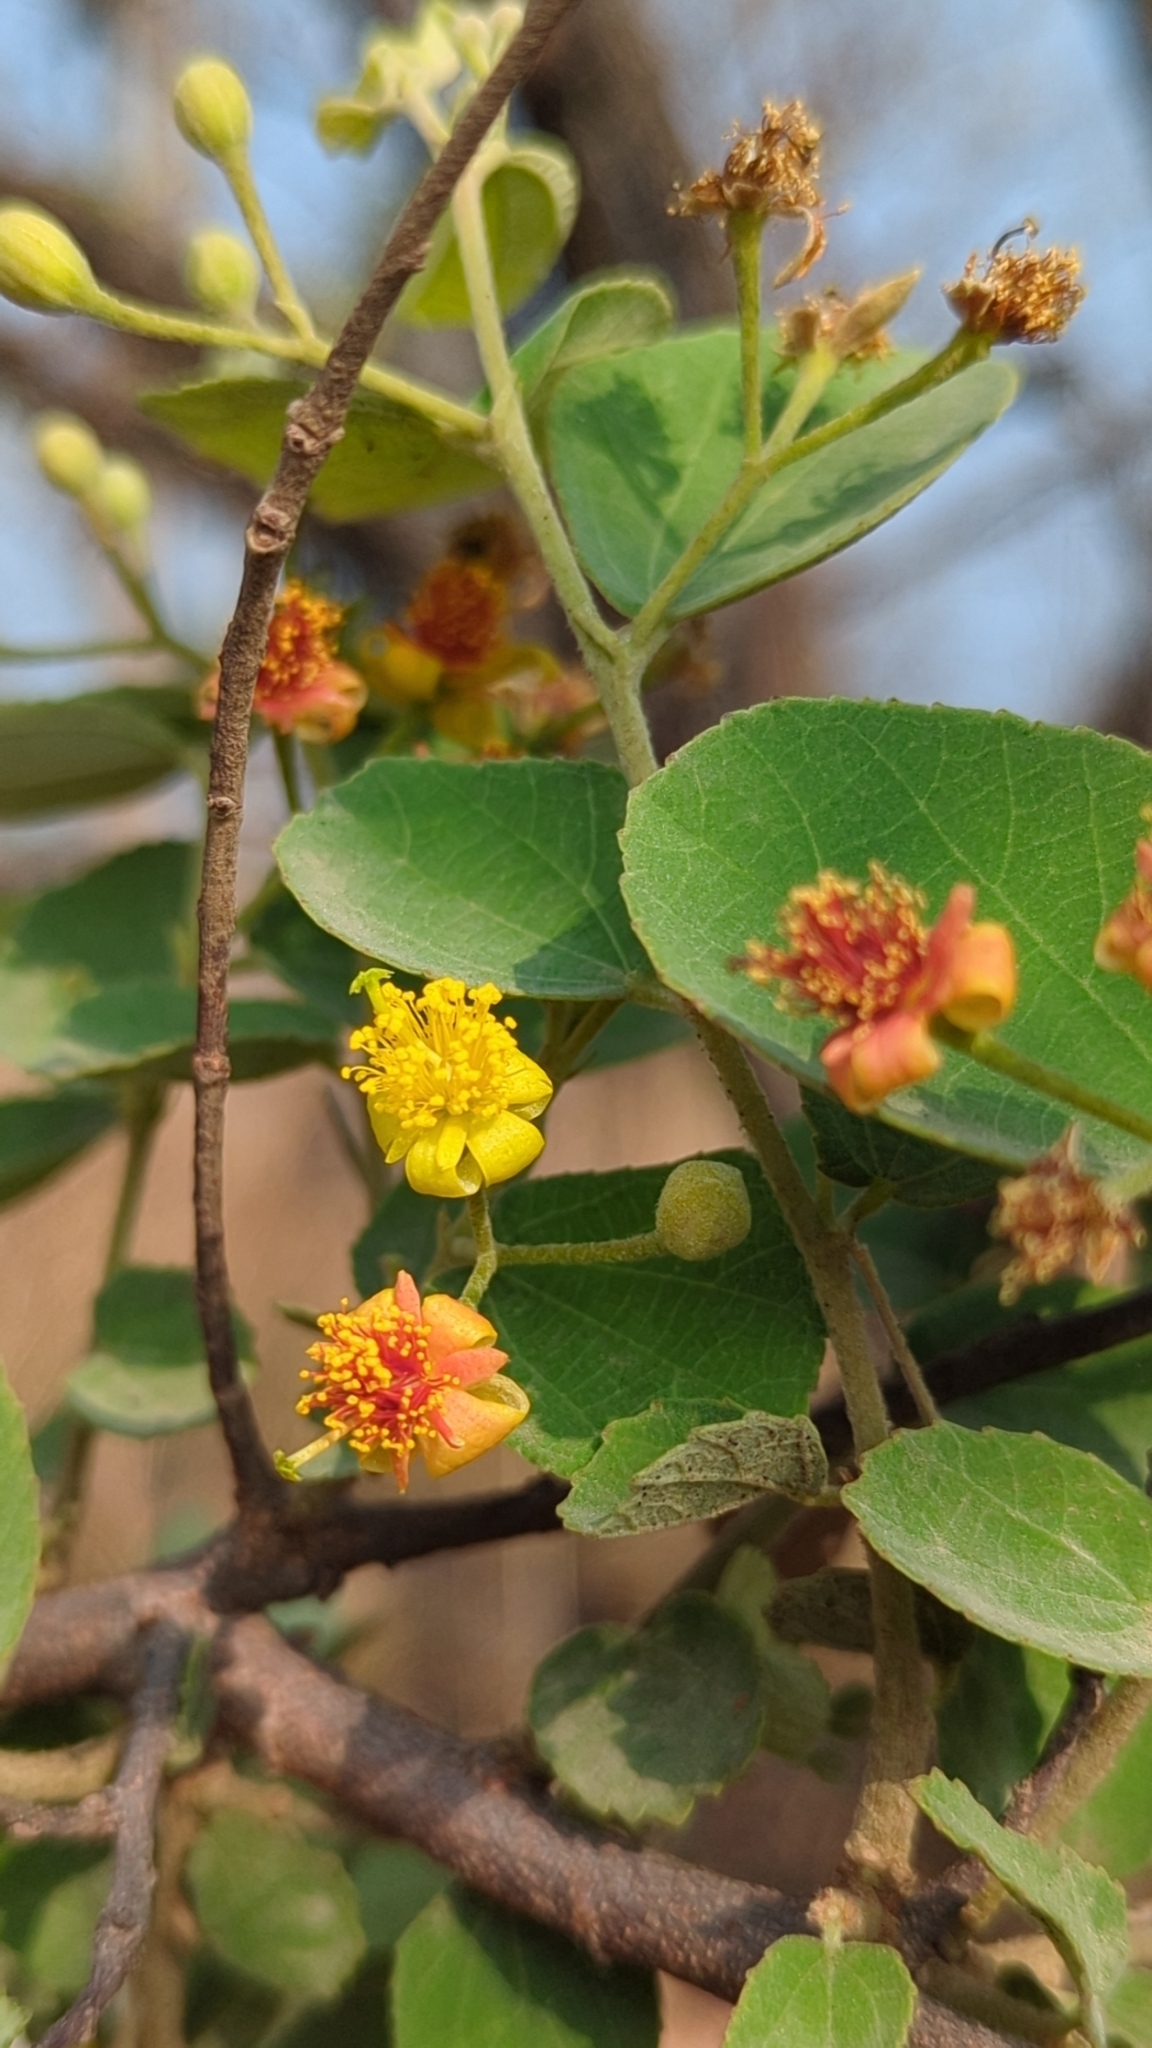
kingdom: Plantae
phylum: Tracheophyta
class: Magnoliopsida
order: Malvales
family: Malvaceae
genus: Grewia
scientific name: Grewia tiliifolia
